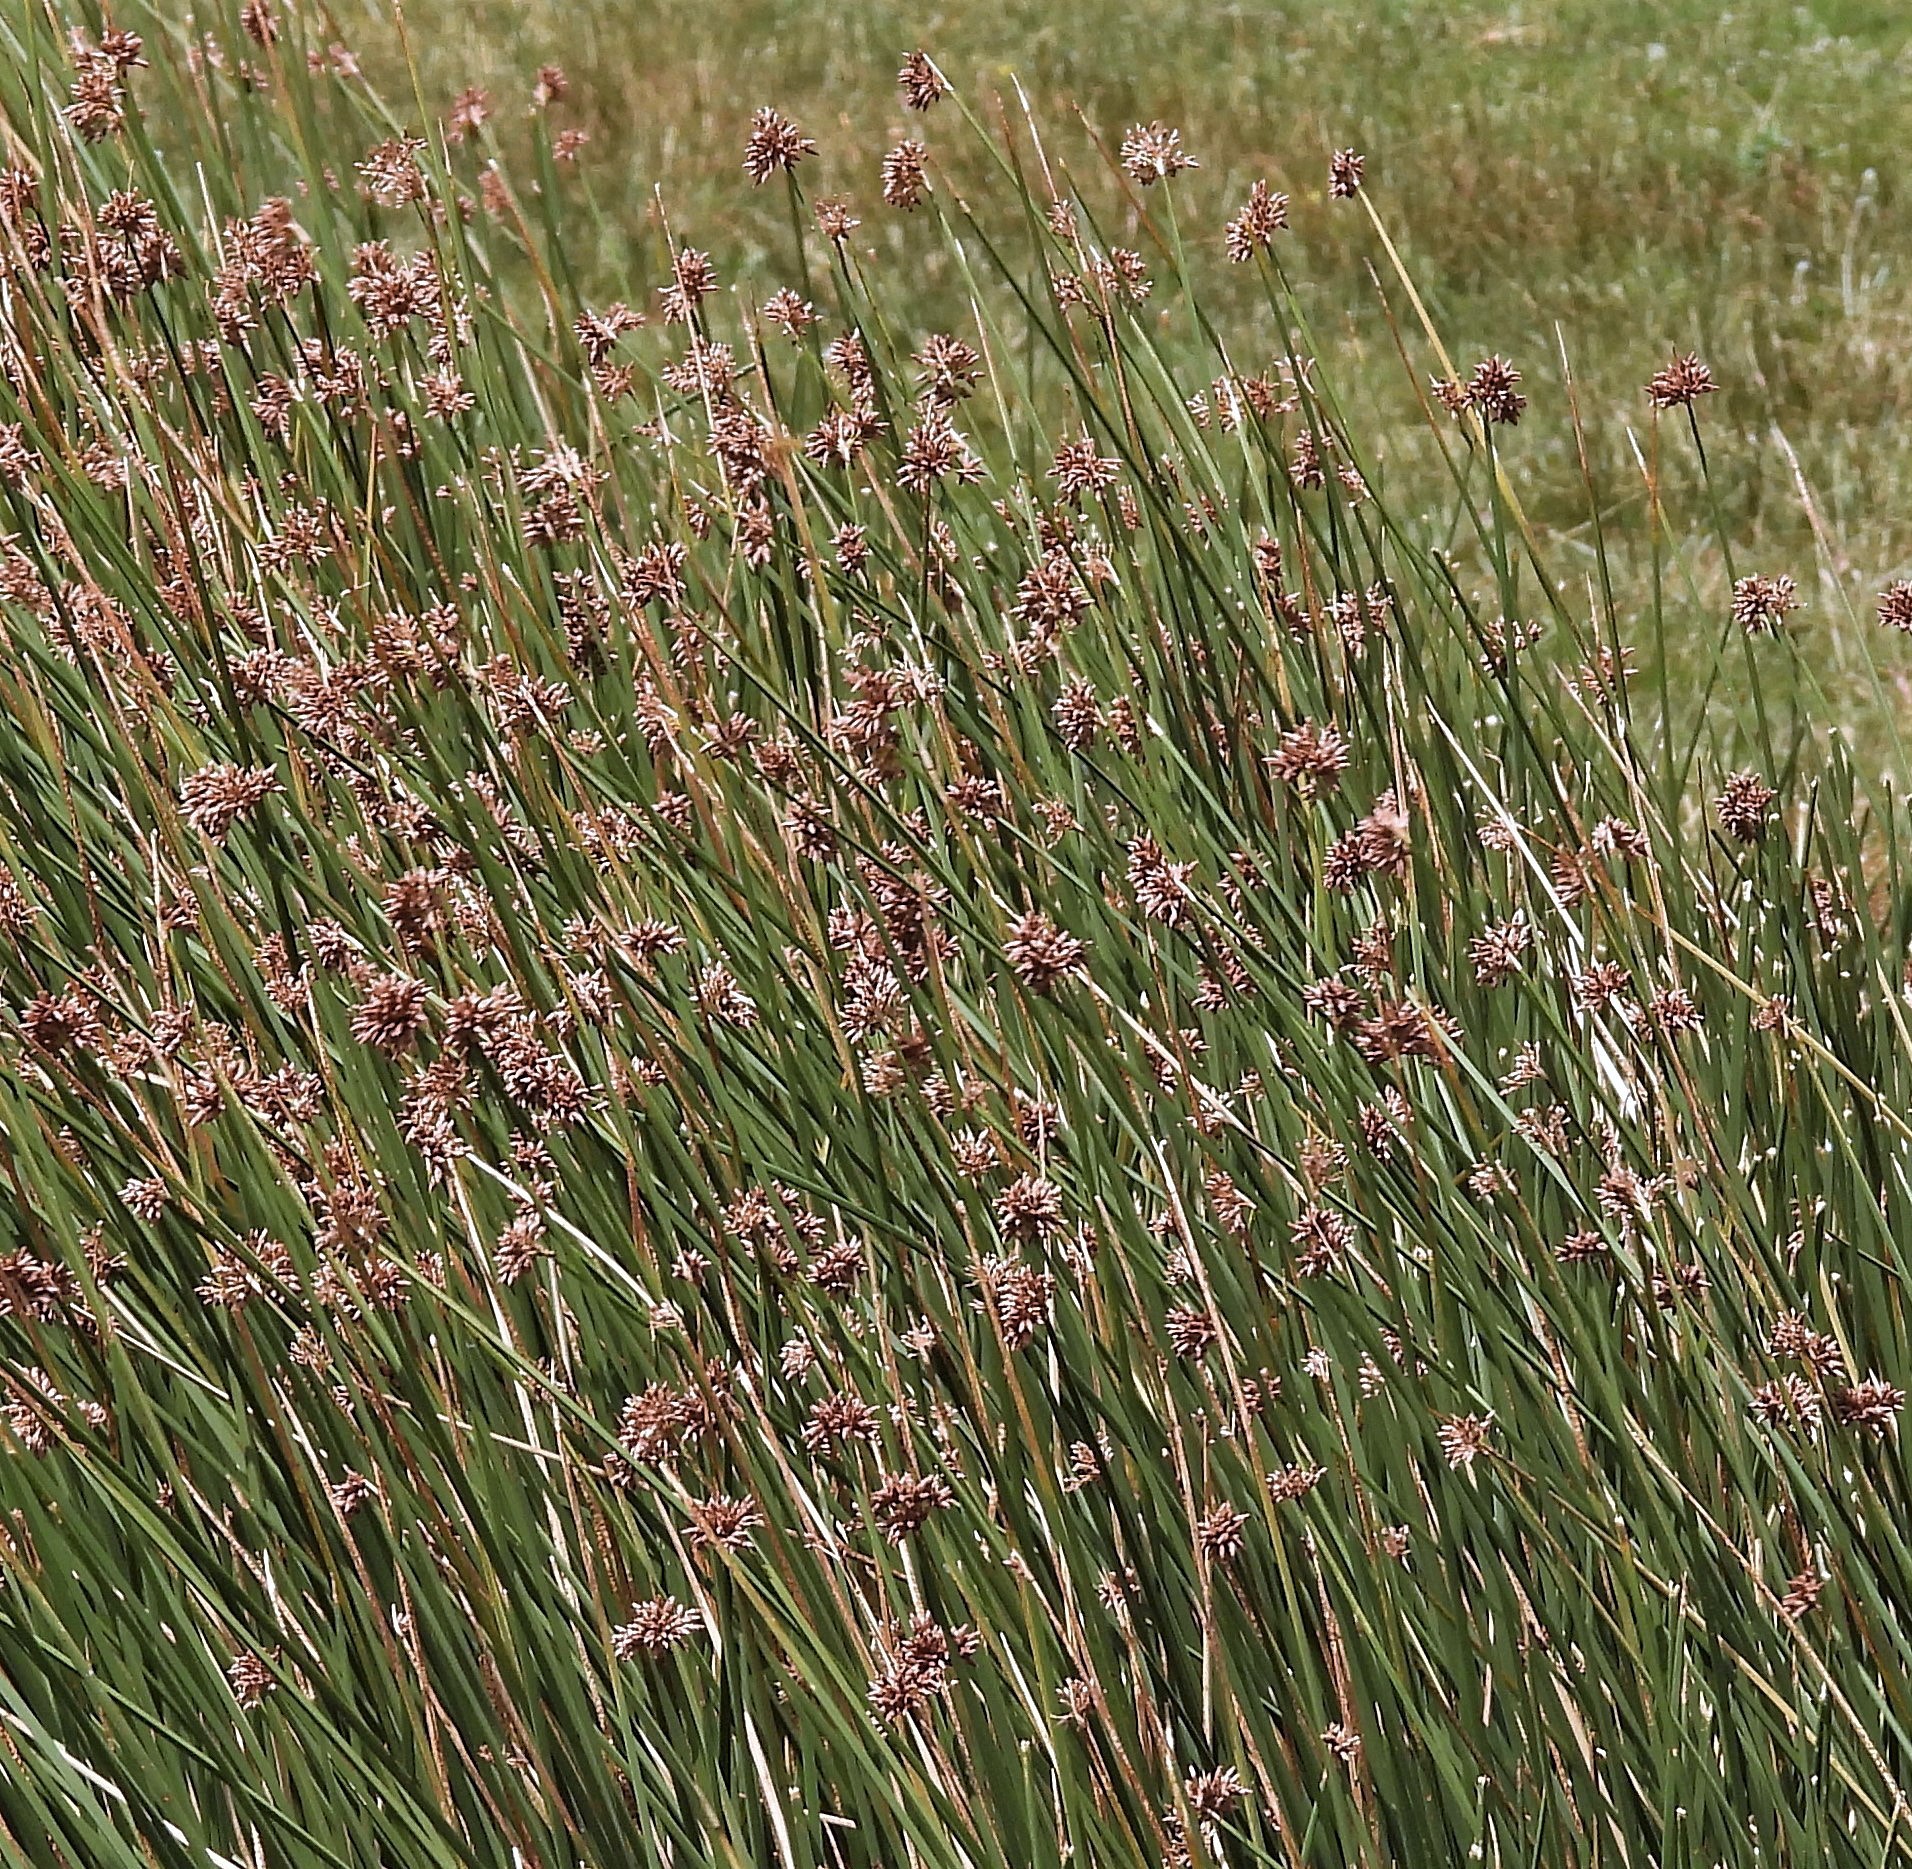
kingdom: Plantae
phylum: Tracheophyta
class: Liliopsida
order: Poales
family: Cyperaceae
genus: Schoenoplectus
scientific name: Schoenoplectus californicus
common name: California bulrush
